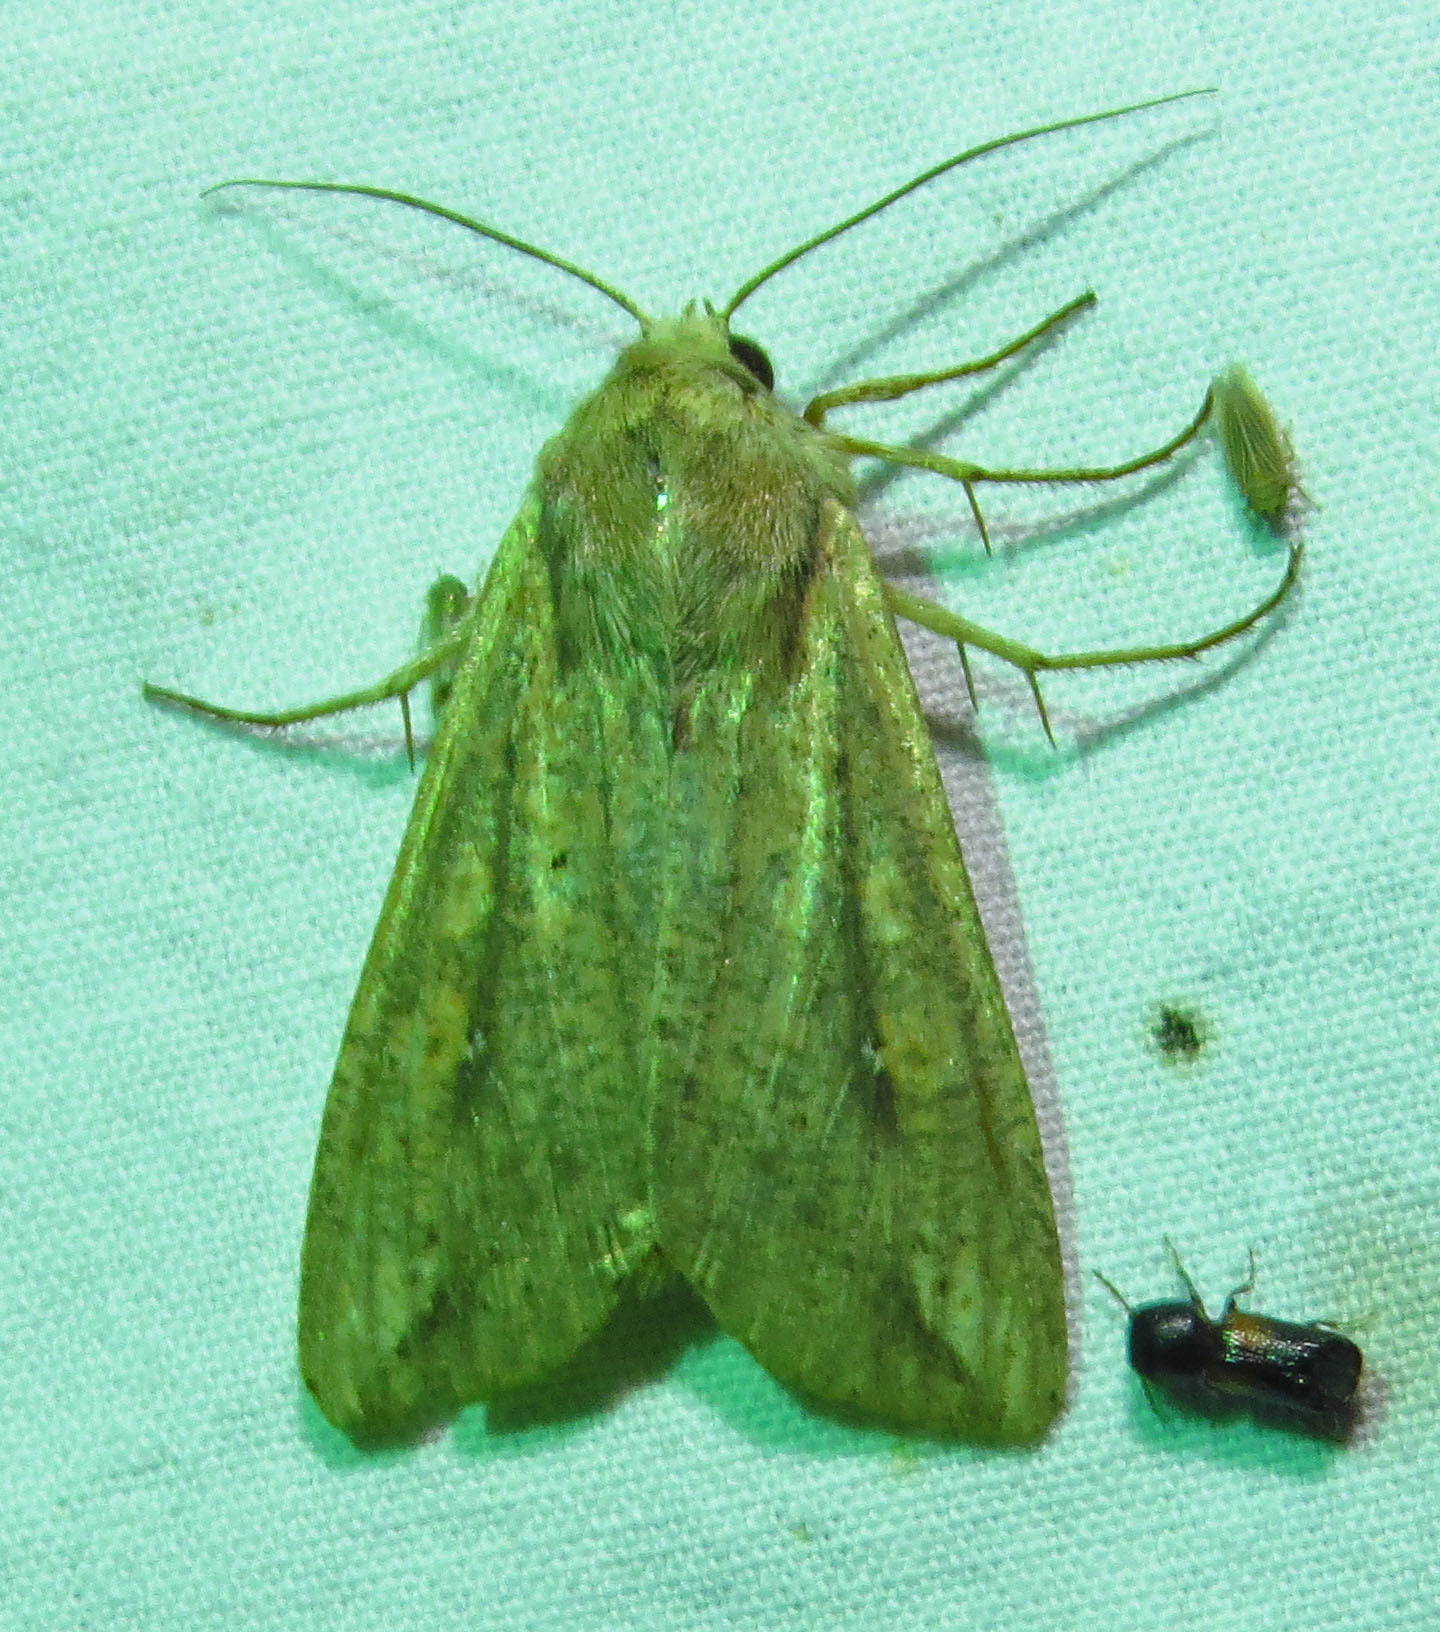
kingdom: Animalia
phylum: Arthropoda
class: Insecta
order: Lepidoptera
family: Noctuidae
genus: Mythimna
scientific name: Mythimna unipuncta
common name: White-speck
